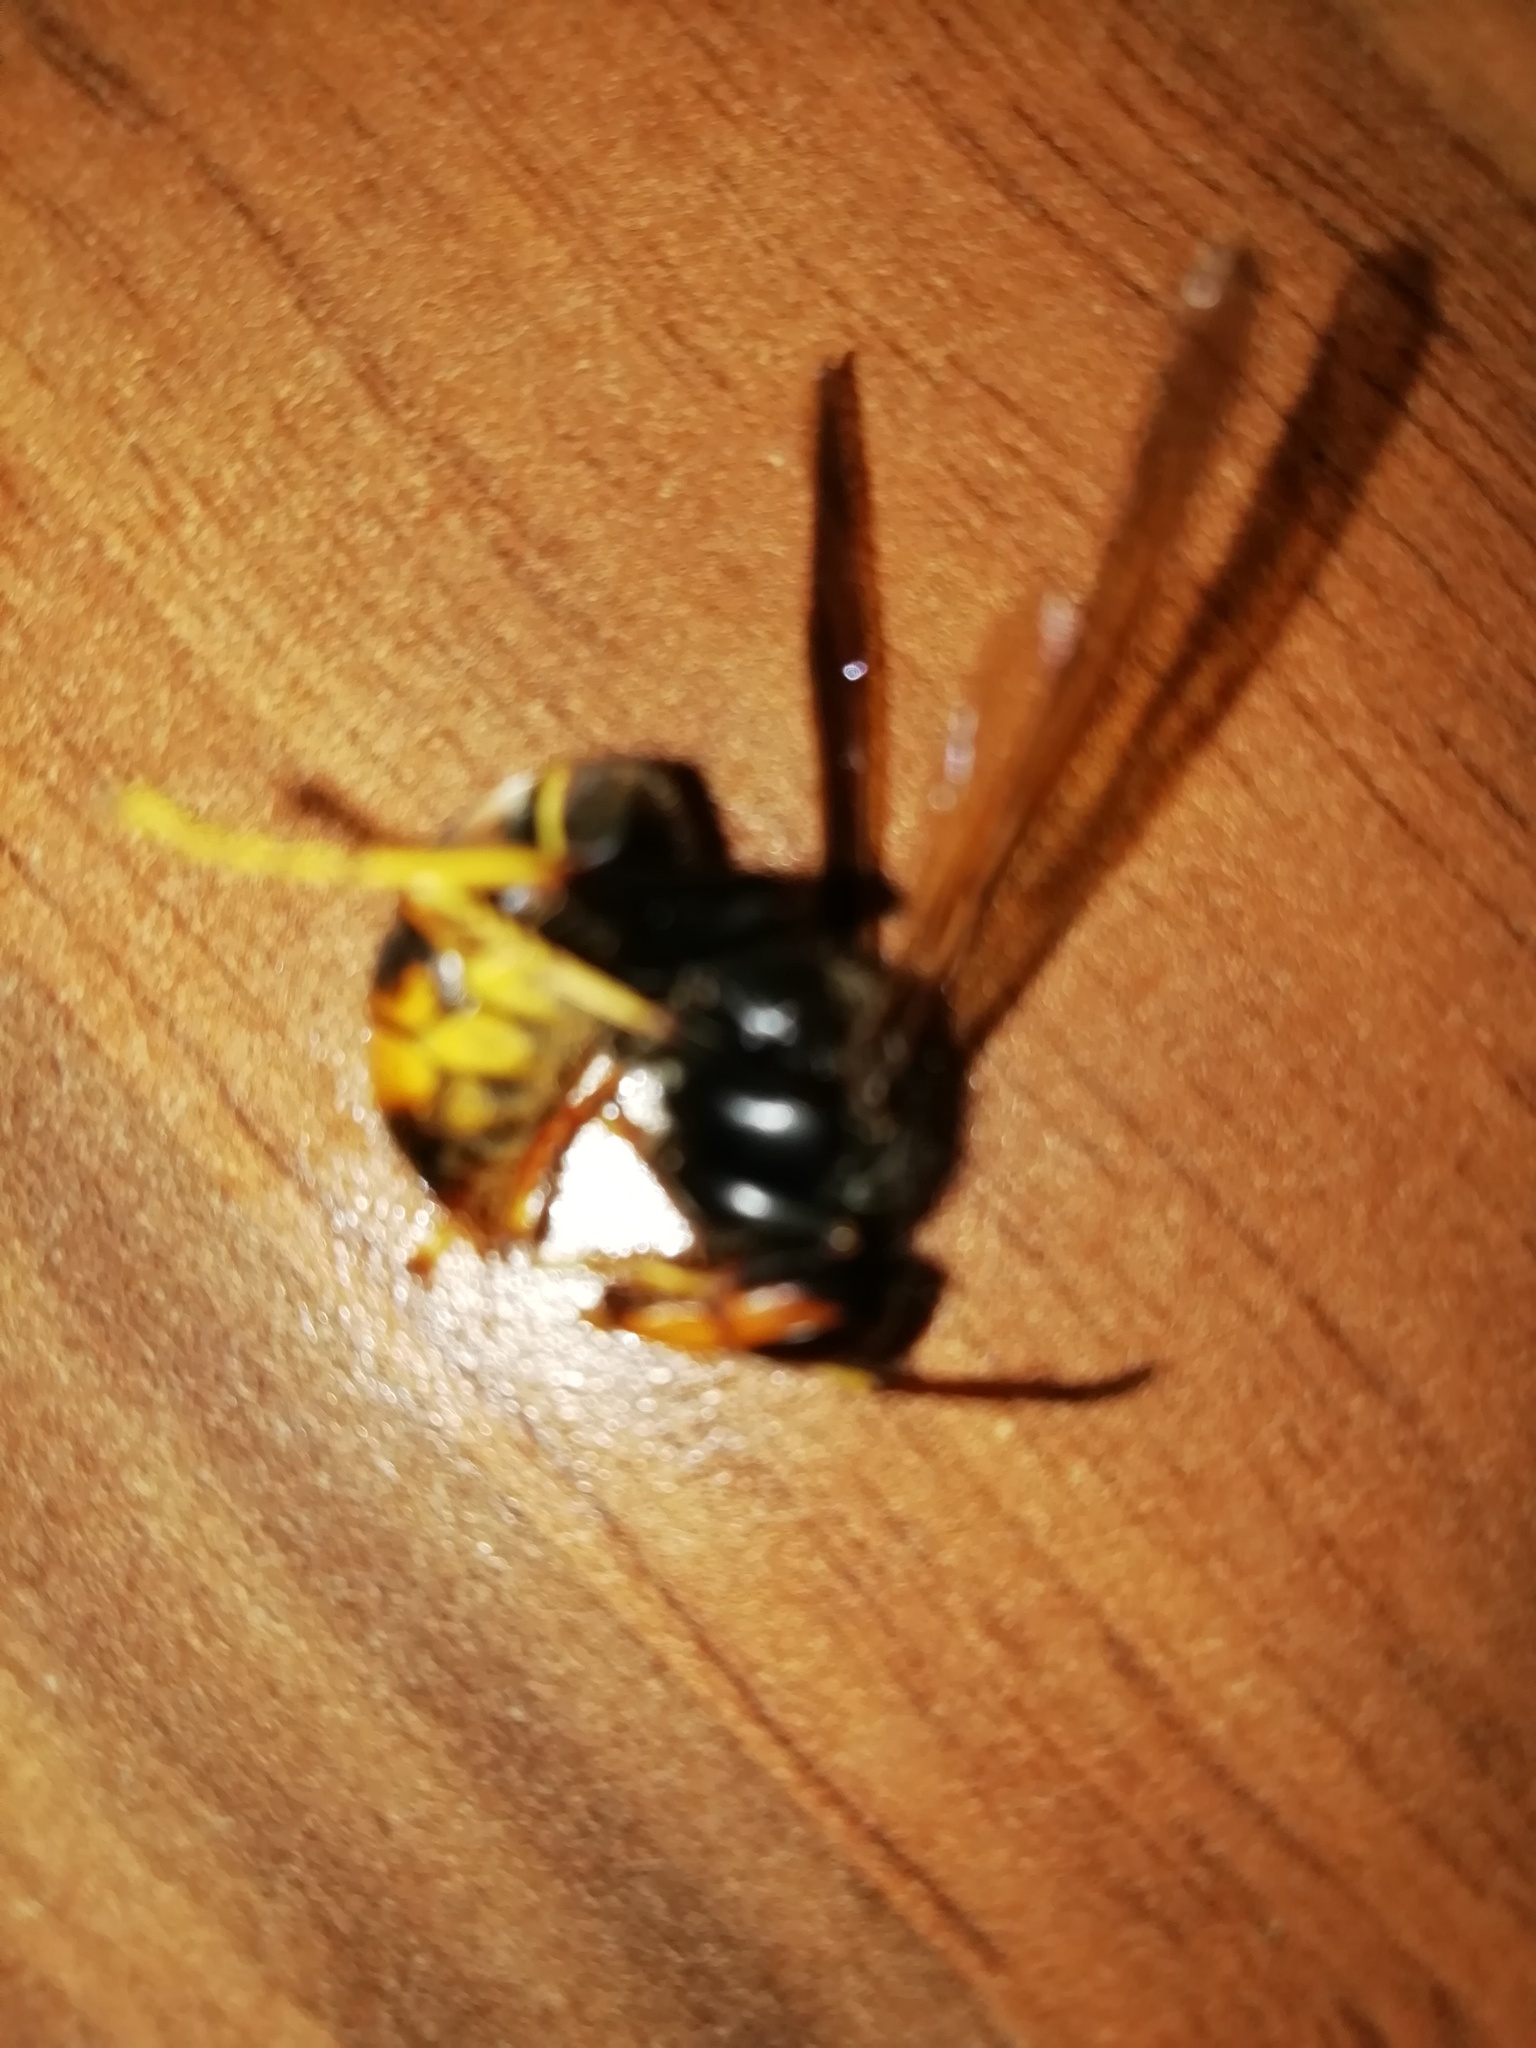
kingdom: Animalia
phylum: Arthropoda
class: Insecta
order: Hymenoptera
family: Vespidae
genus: Vespa
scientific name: Vespa velutina
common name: Asian hornet
